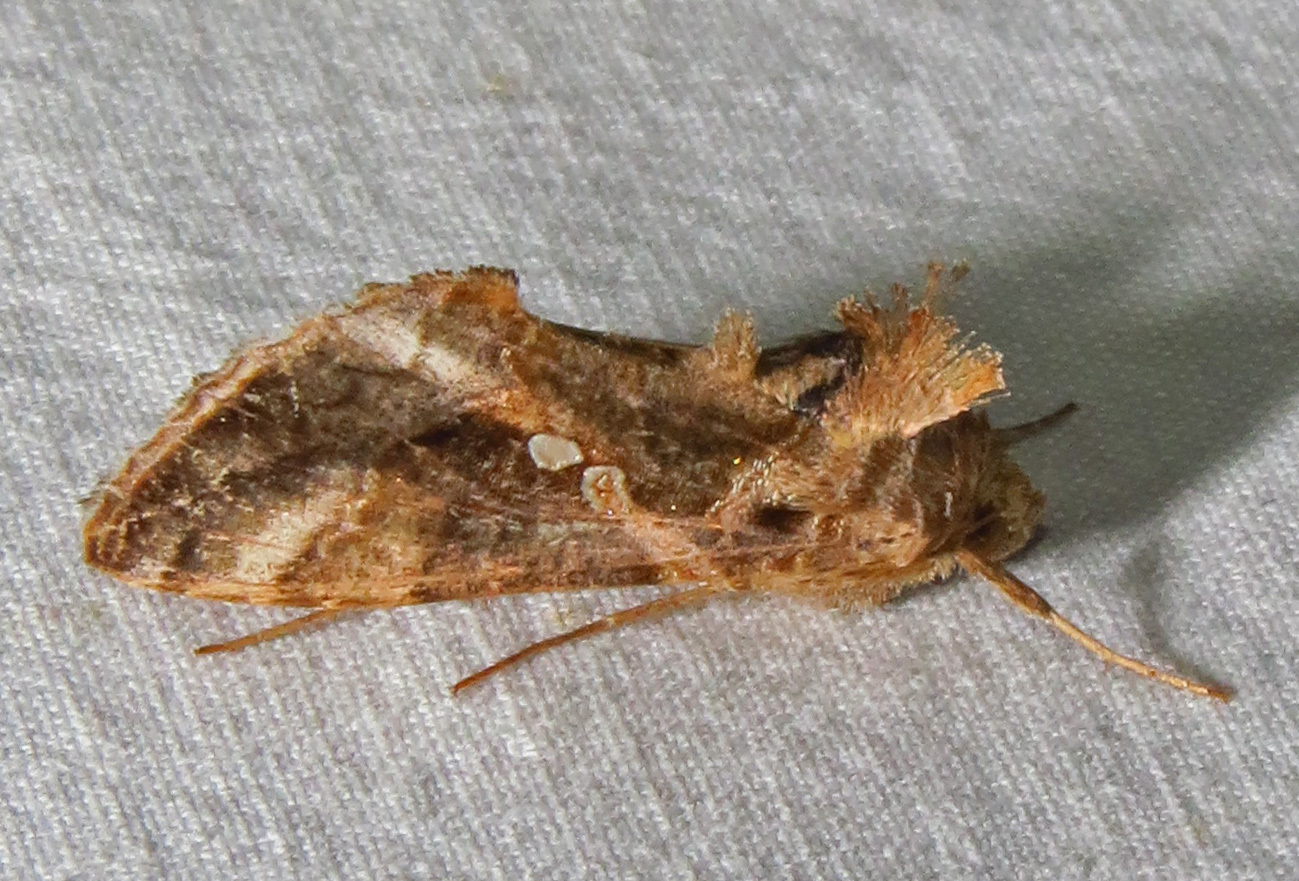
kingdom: Animalia
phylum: Arthropoda
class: Insecta
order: Lepidoptera
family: Noctuidae
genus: Chrysodeixis
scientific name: Chrysodeixis includens
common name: Cutworm moth
